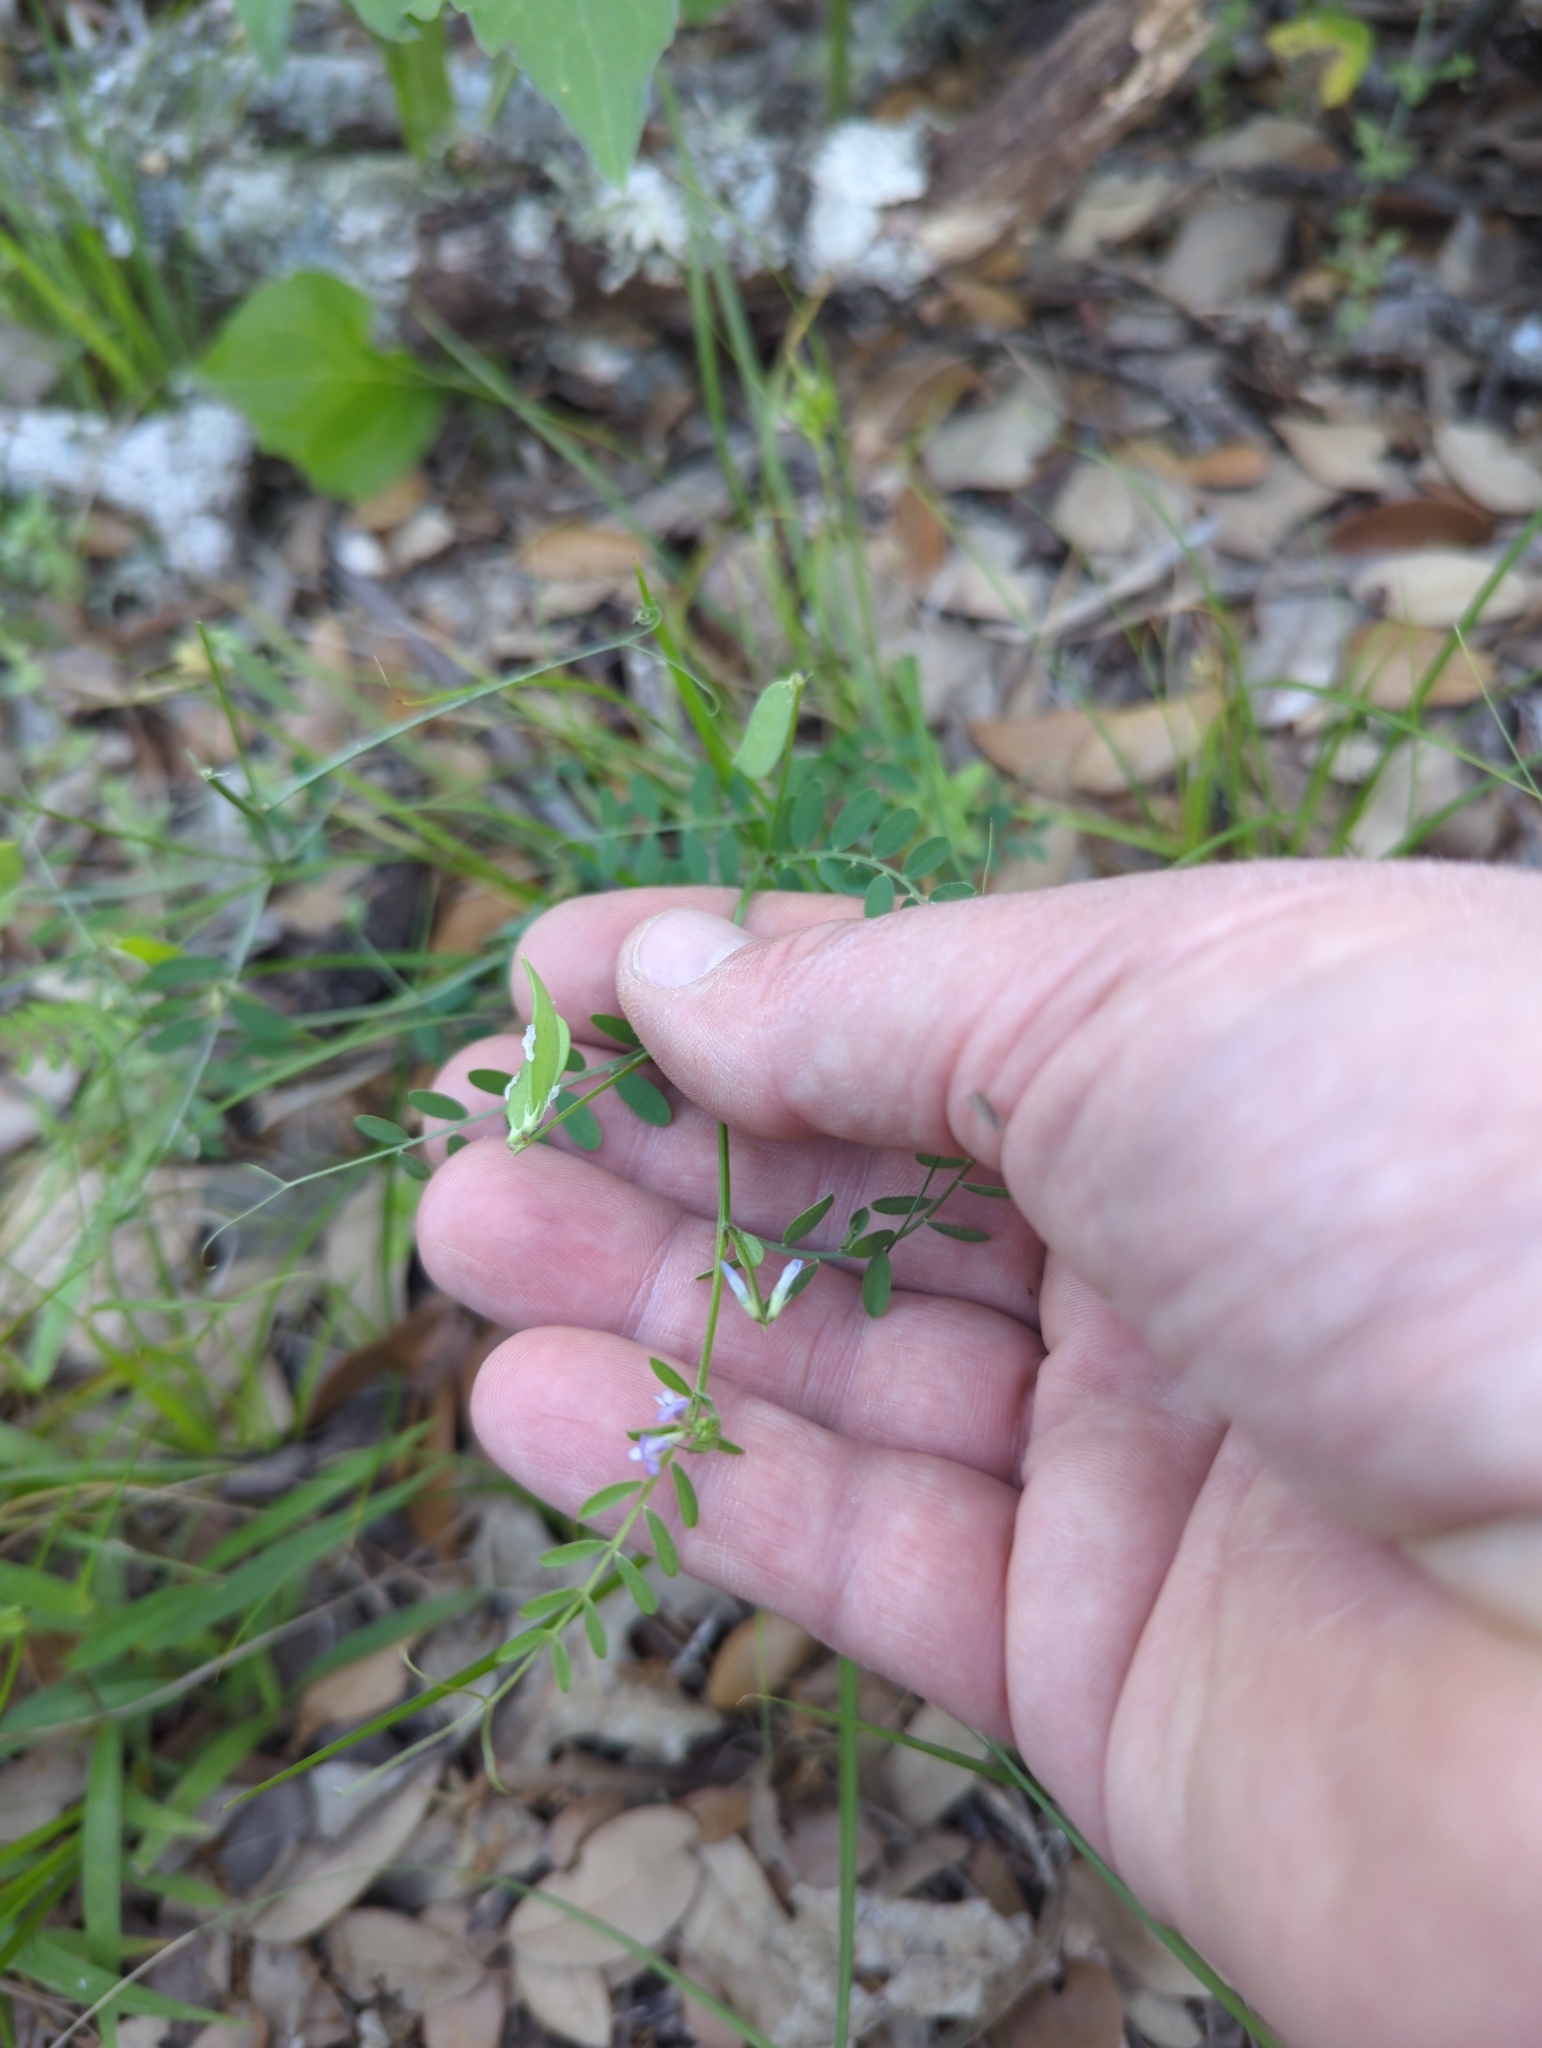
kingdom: Plantae
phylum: Tracheophyta
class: Magnoliopsida
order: Fabales
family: Fabaceae
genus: Vicia
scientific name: Vicia ludoviciana
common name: Louisiana vetch
